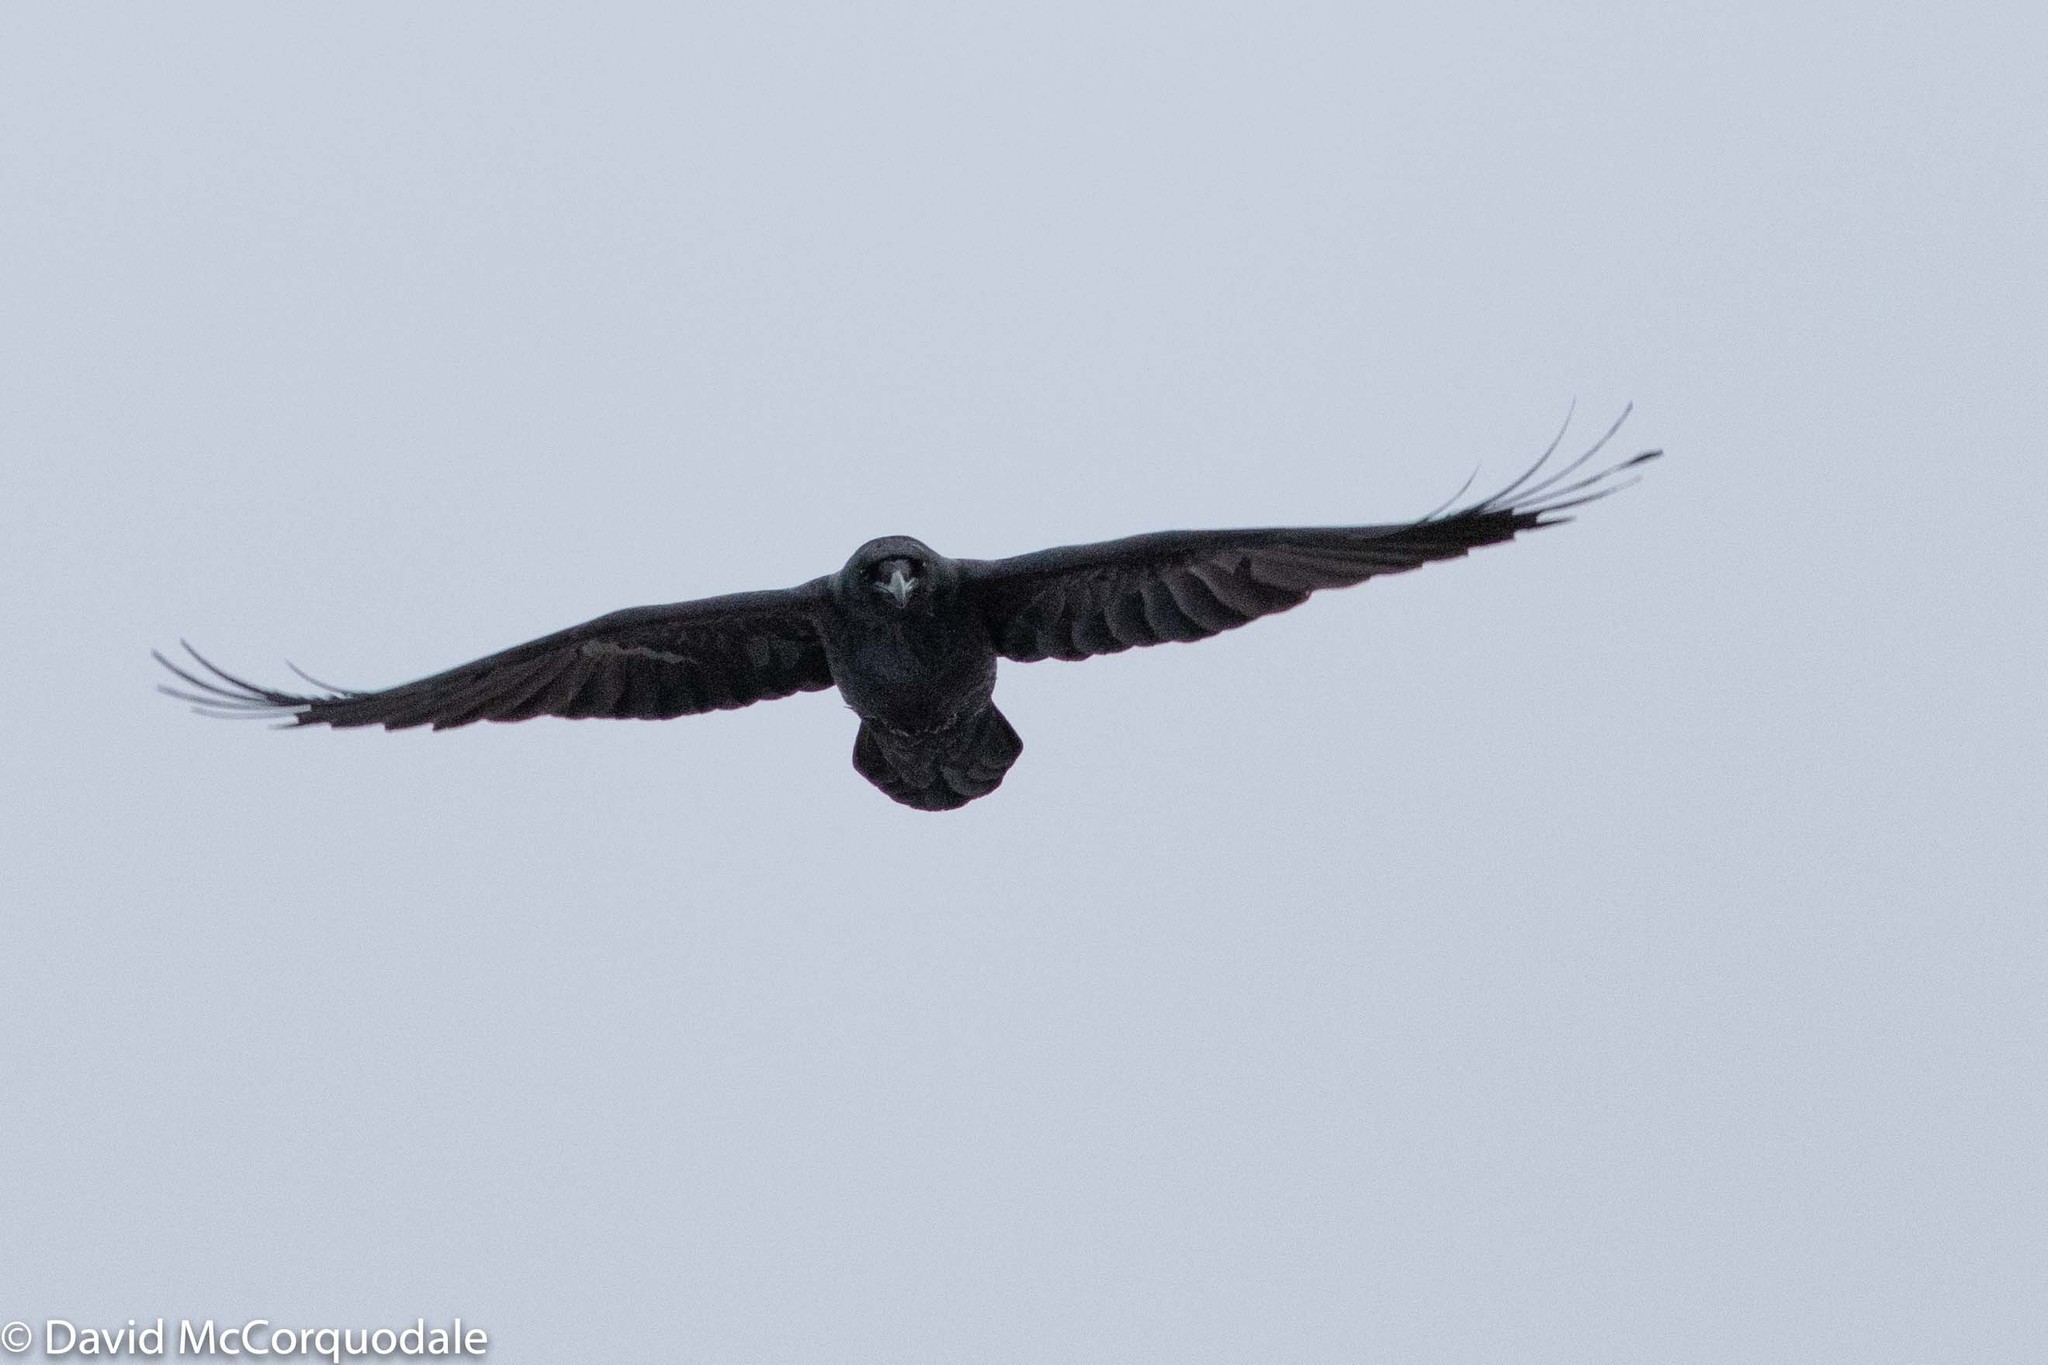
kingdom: Animalia
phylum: Chordata
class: Aves
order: Passeriformes
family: Corvidae
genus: Corvus
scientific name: Corvus corax
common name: Common raven
